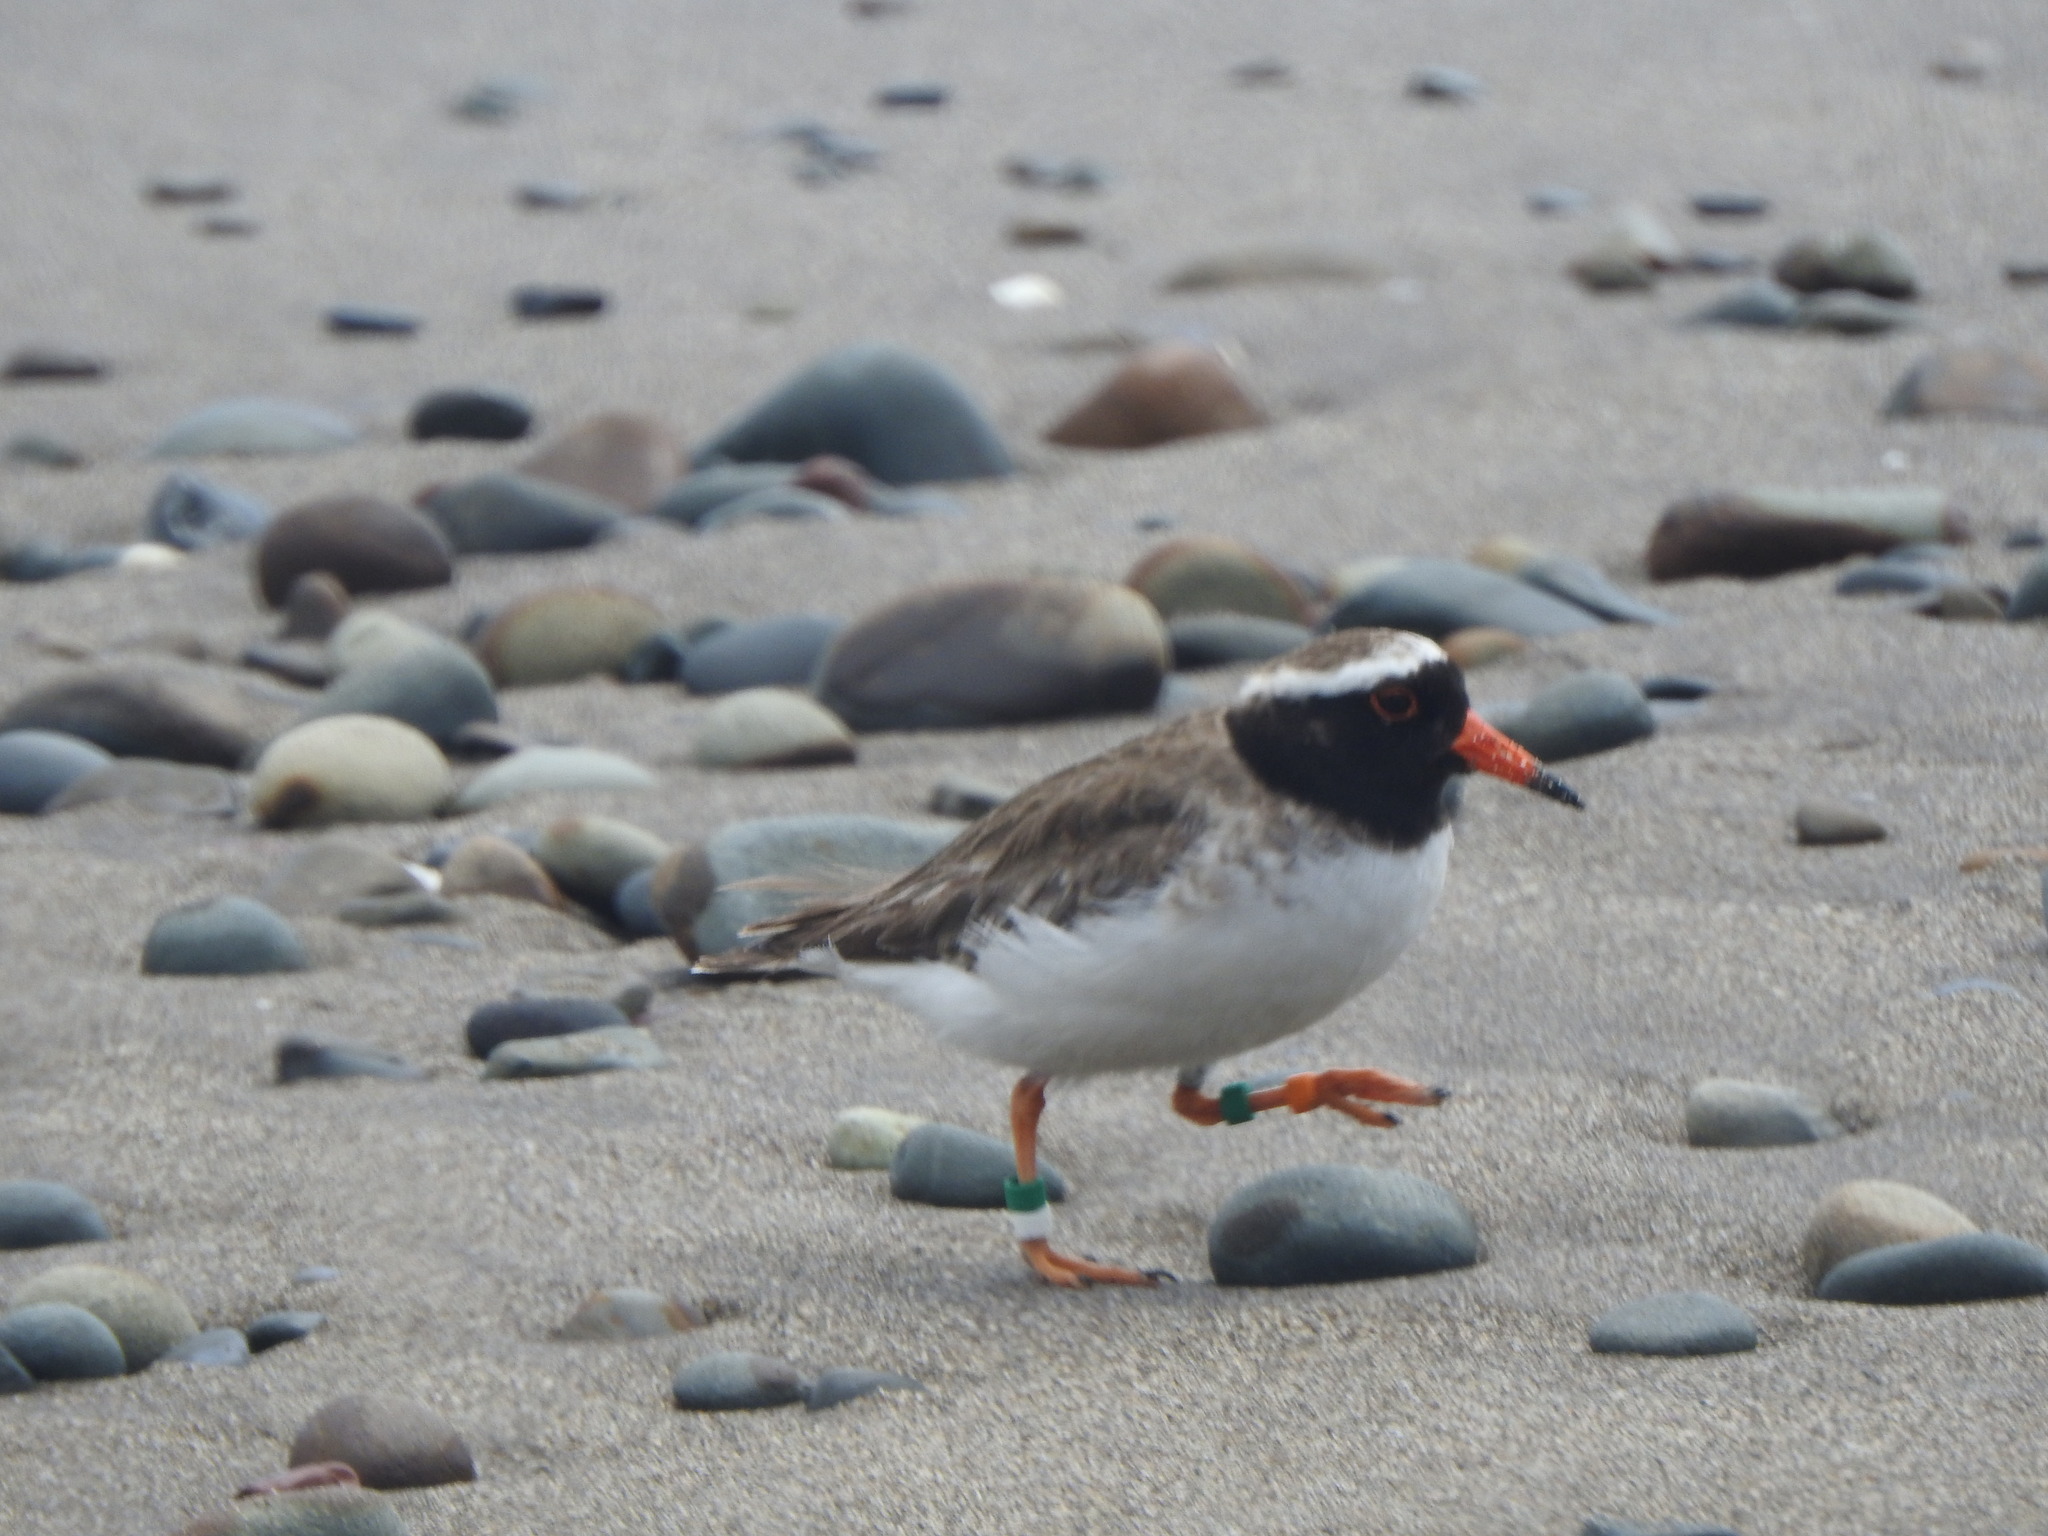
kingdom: Animalia
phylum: Chordata
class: Aves
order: Charadriiformes
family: Charadriidae
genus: Thinornis
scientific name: Thinornis novaeseelandiae
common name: Shore dotterel
